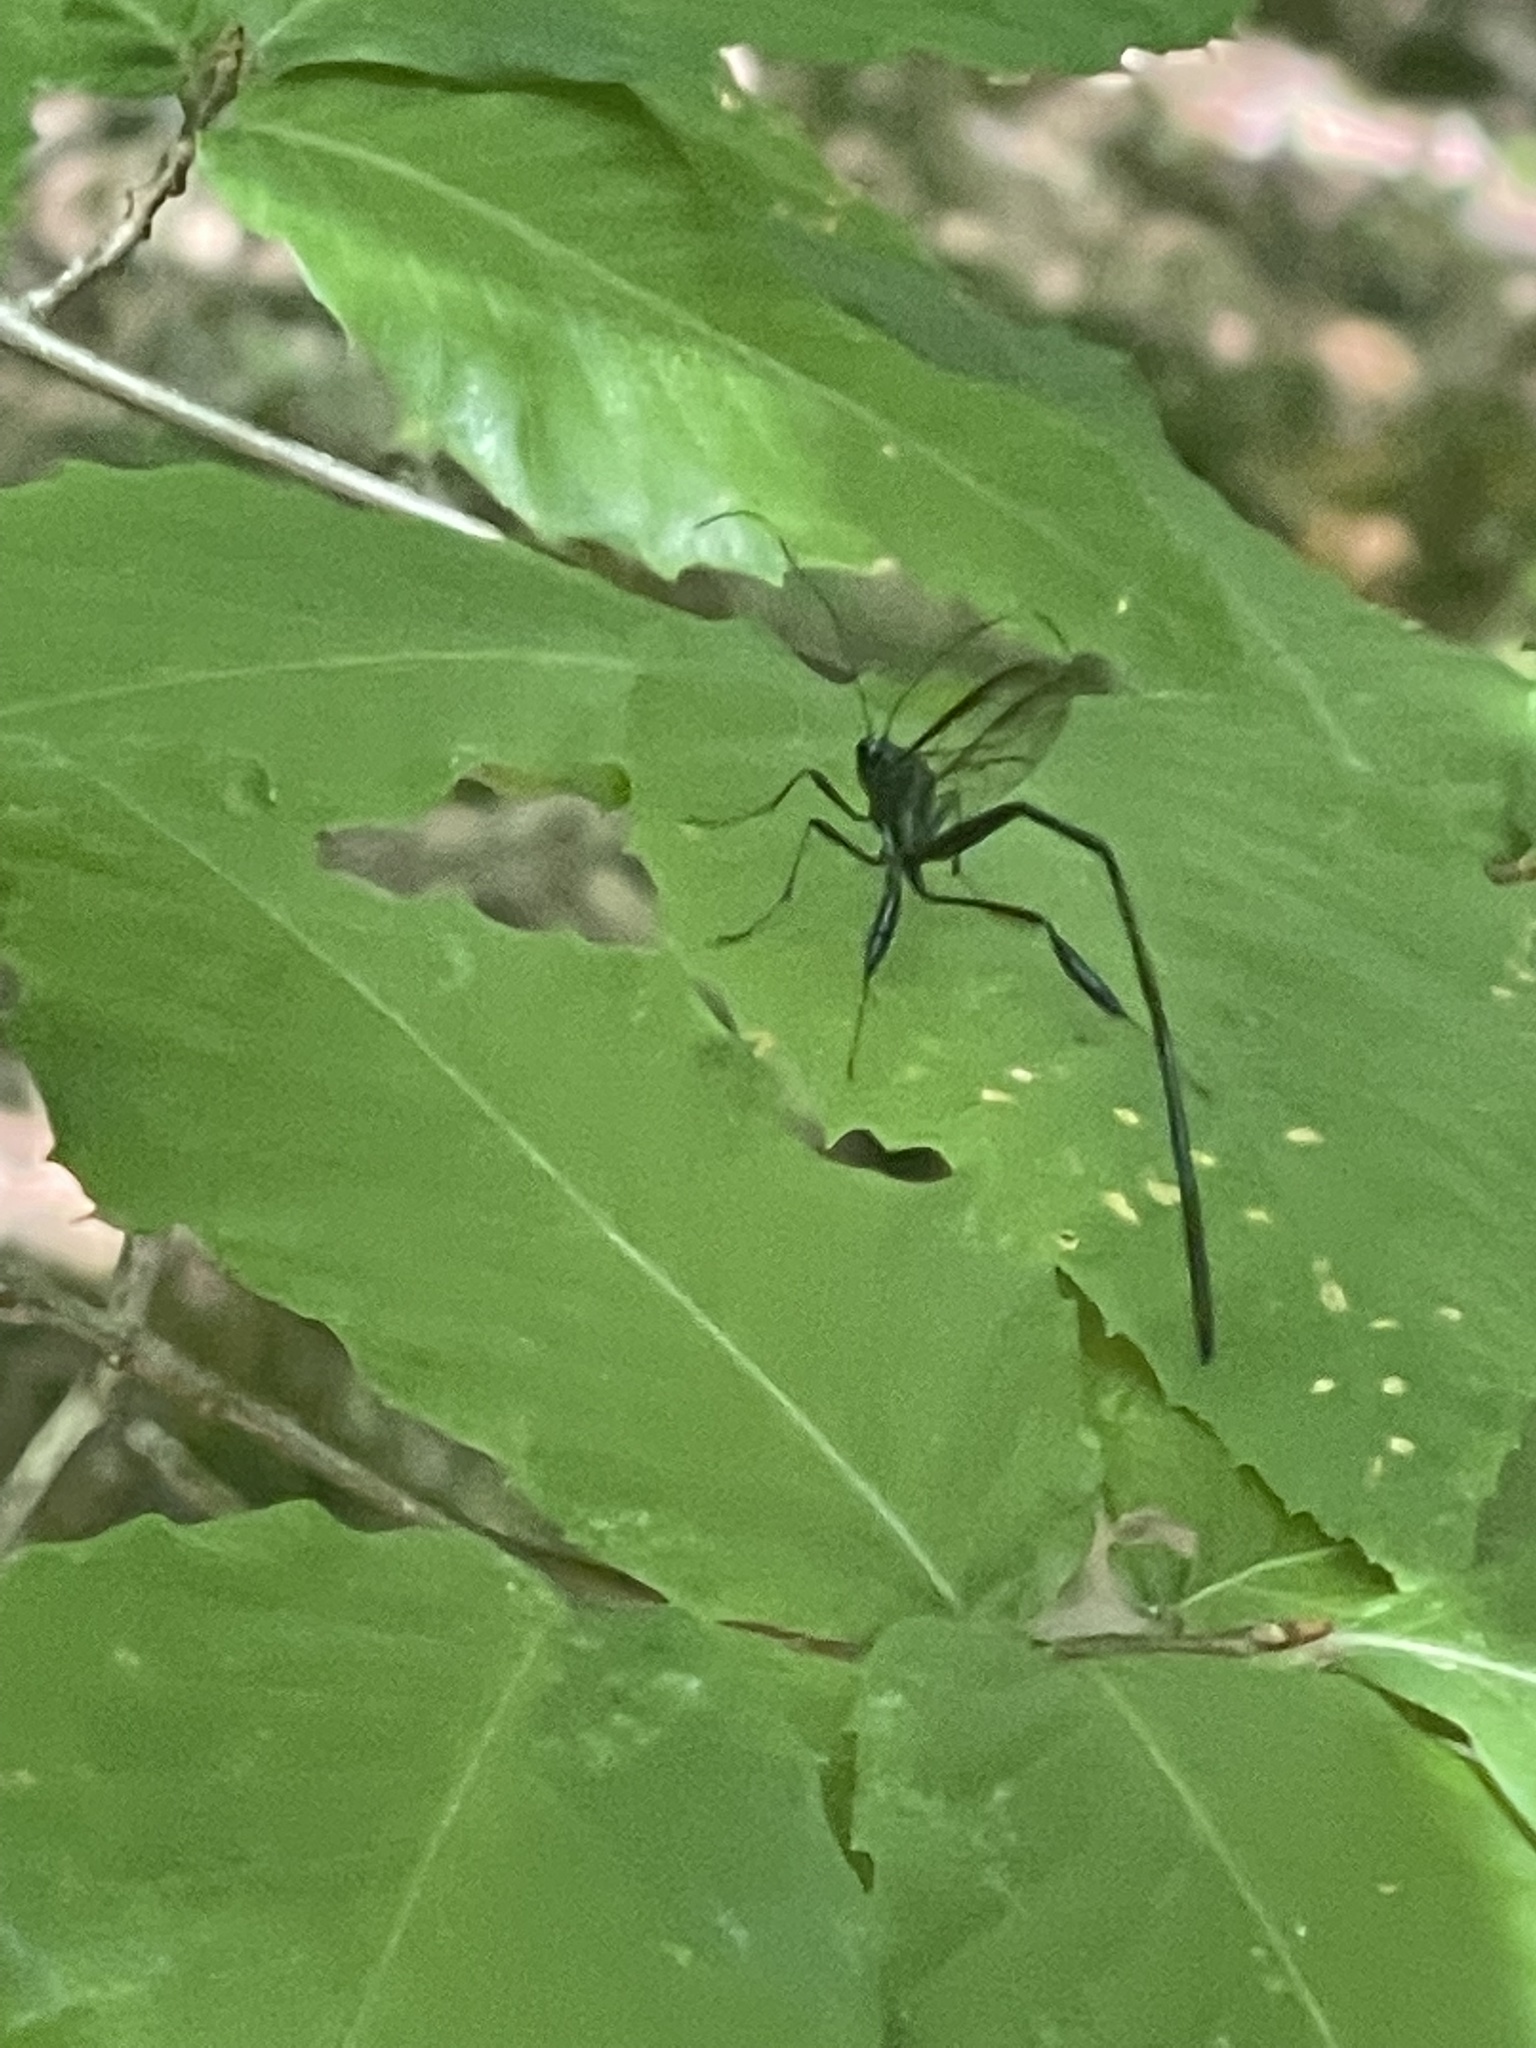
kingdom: Animalia
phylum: Arthropoda
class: Insecta
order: Hymenoptera
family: Pelecinidae
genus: Pelecinus
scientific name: Pelecinus polyturator
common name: American pelecinid wasp
